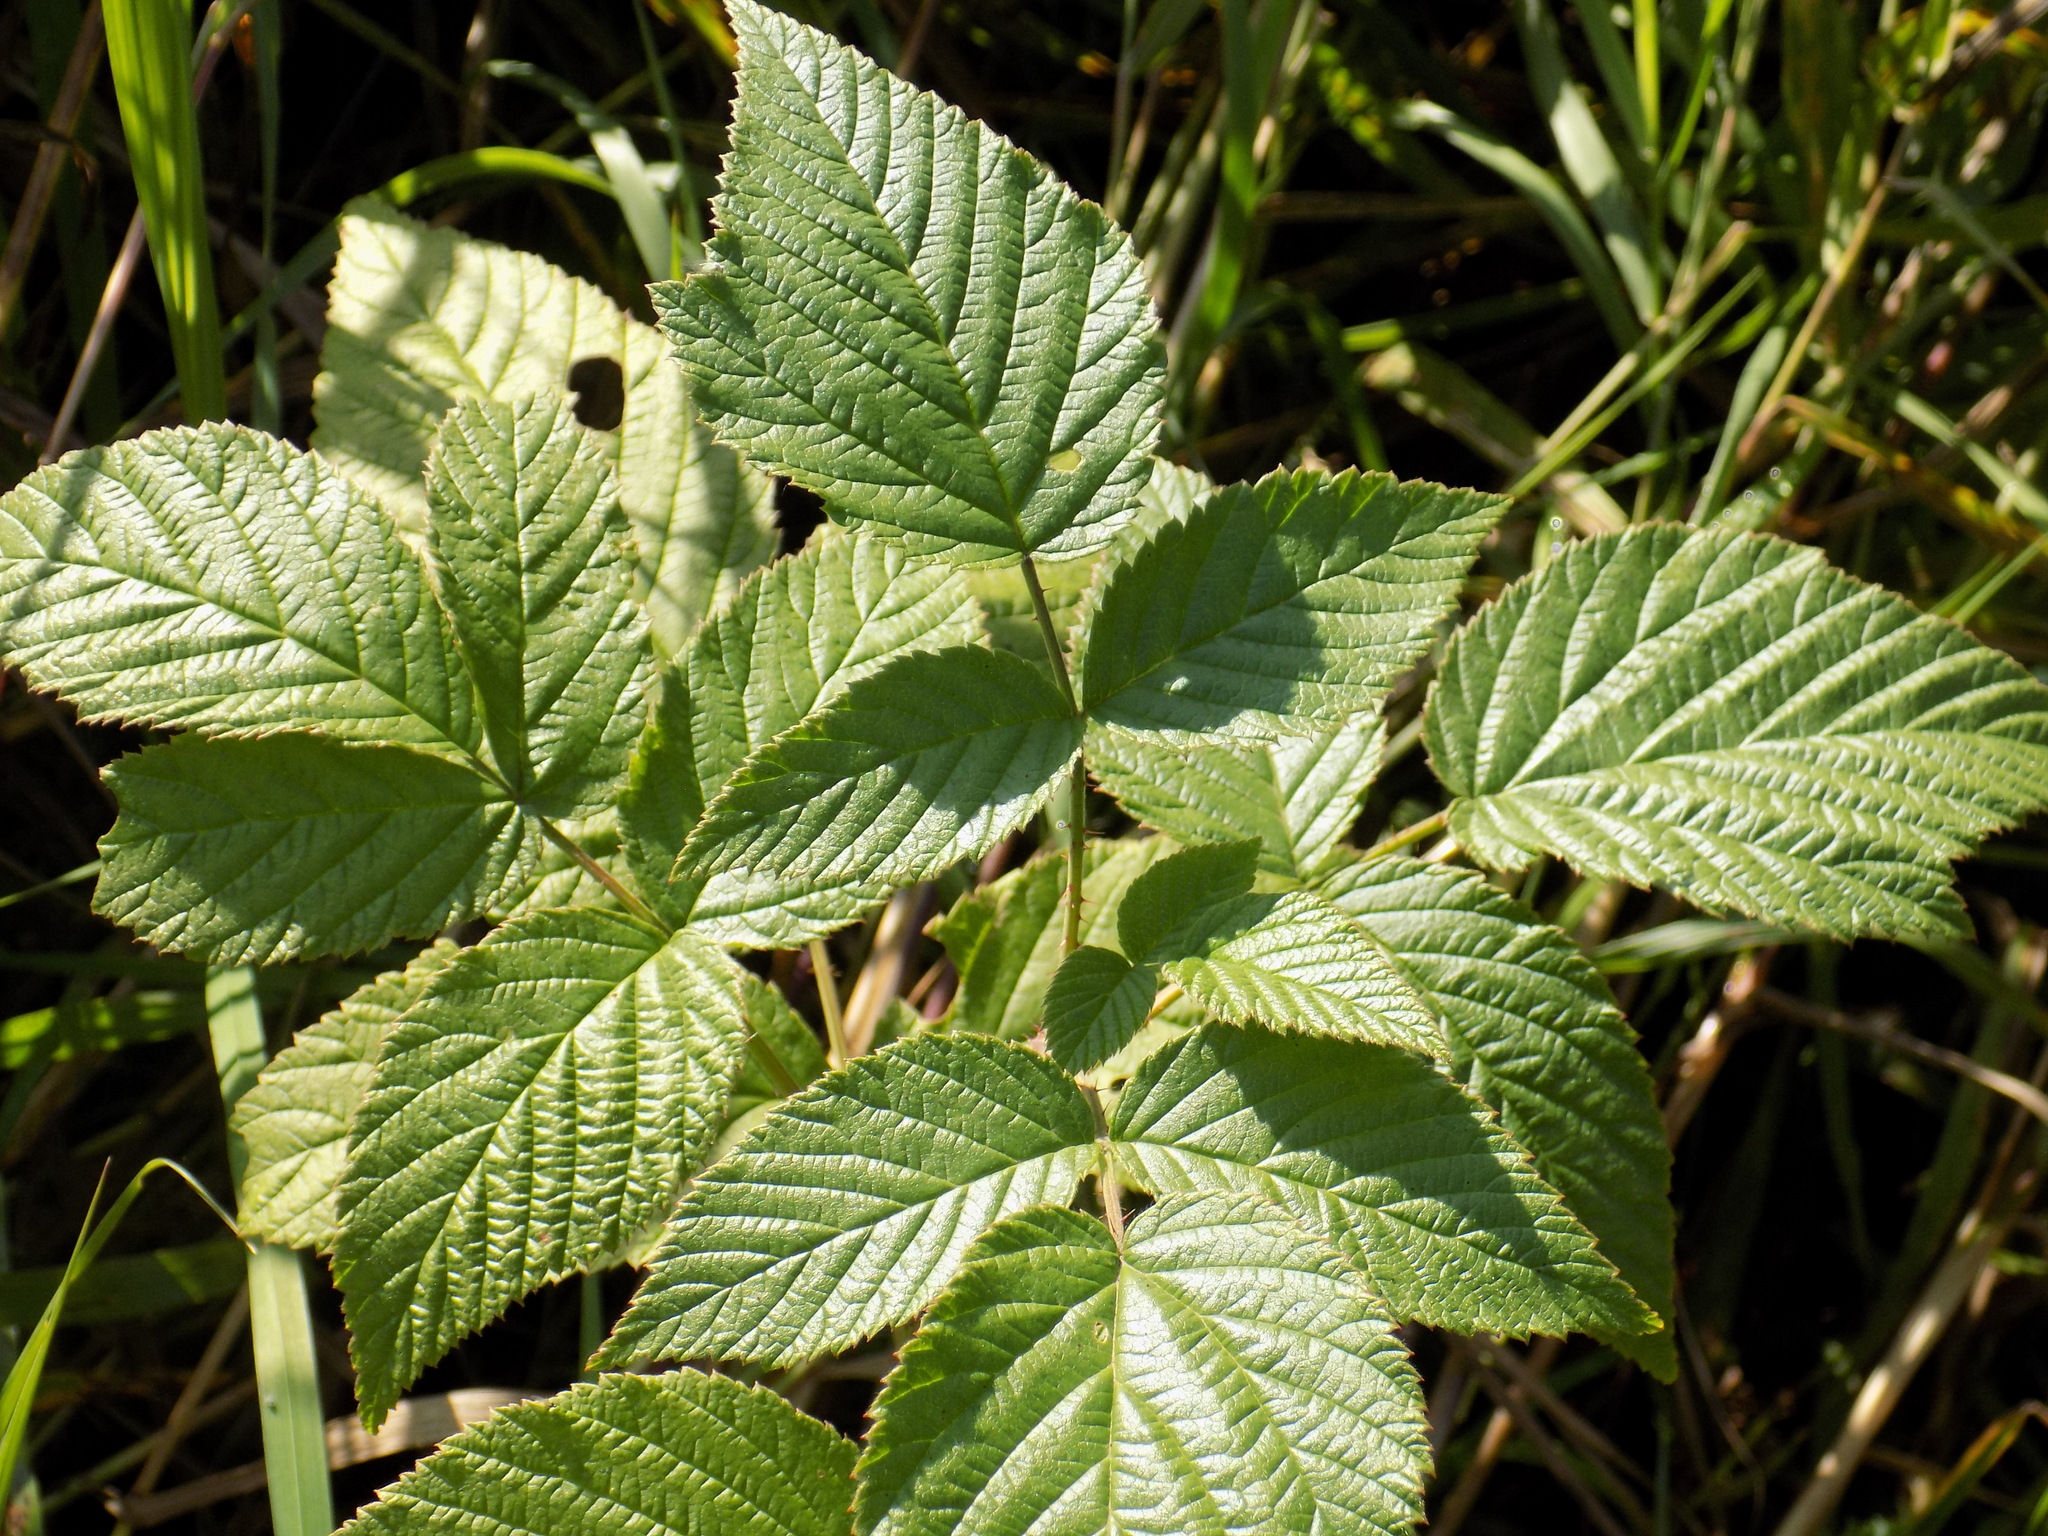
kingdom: Plantae
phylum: Tracheophyta
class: Magnoliopsida
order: Rosales
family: Rosaceae
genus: Rubus
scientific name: Rubus idaeus
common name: Raspberry
